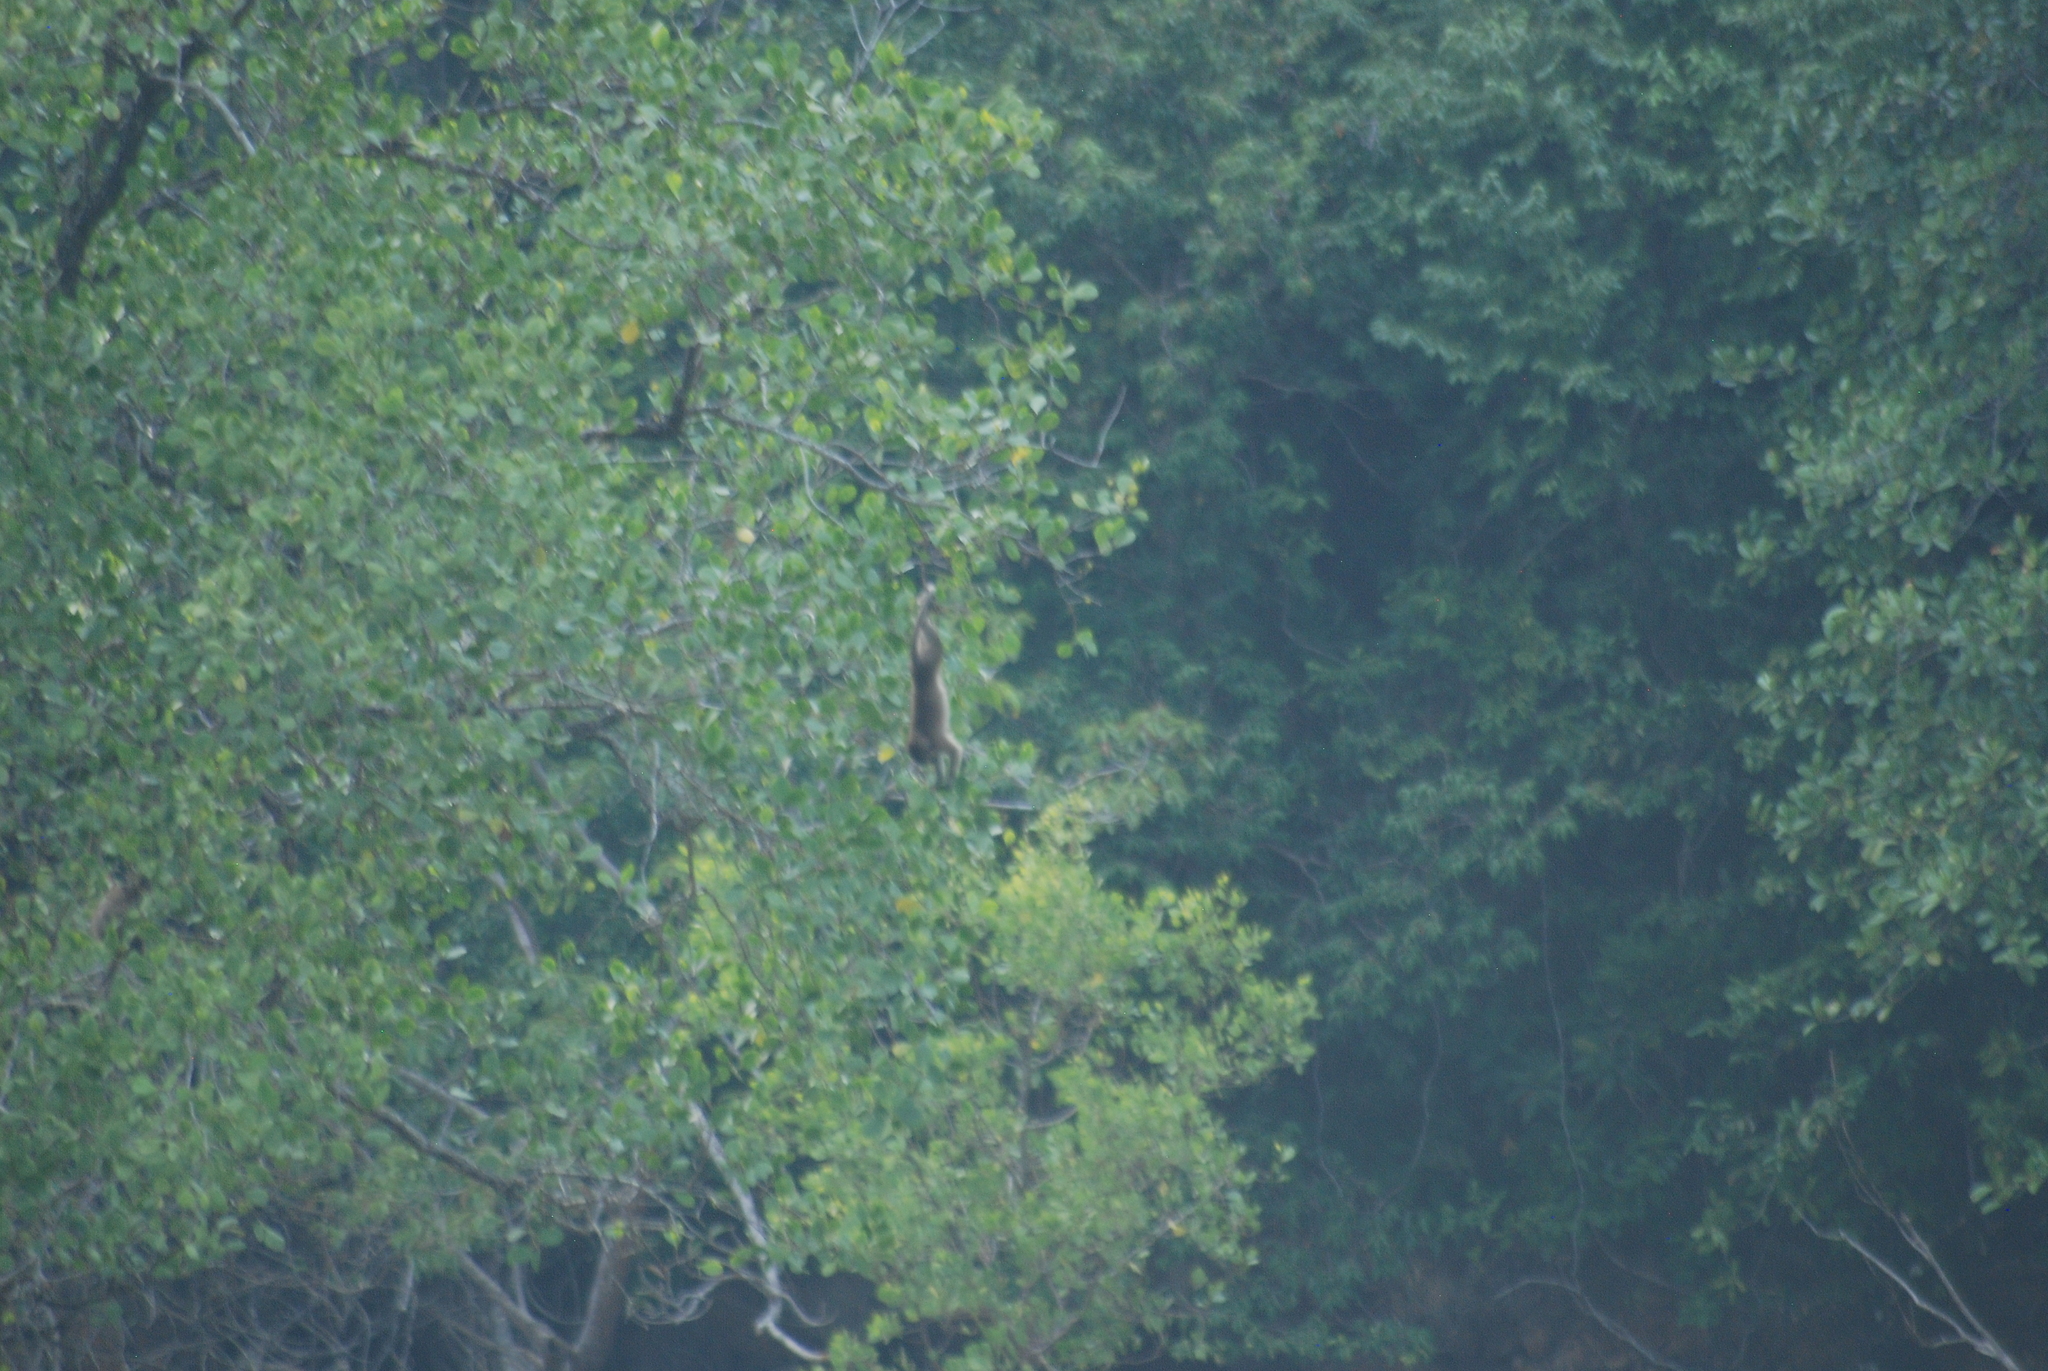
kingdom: Animalia
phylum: Chordata
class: Mammalia
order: Primates
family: Cercopithecidae
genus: Macaca
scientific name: Macaca fascicularis
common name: Crab-eating macaque
